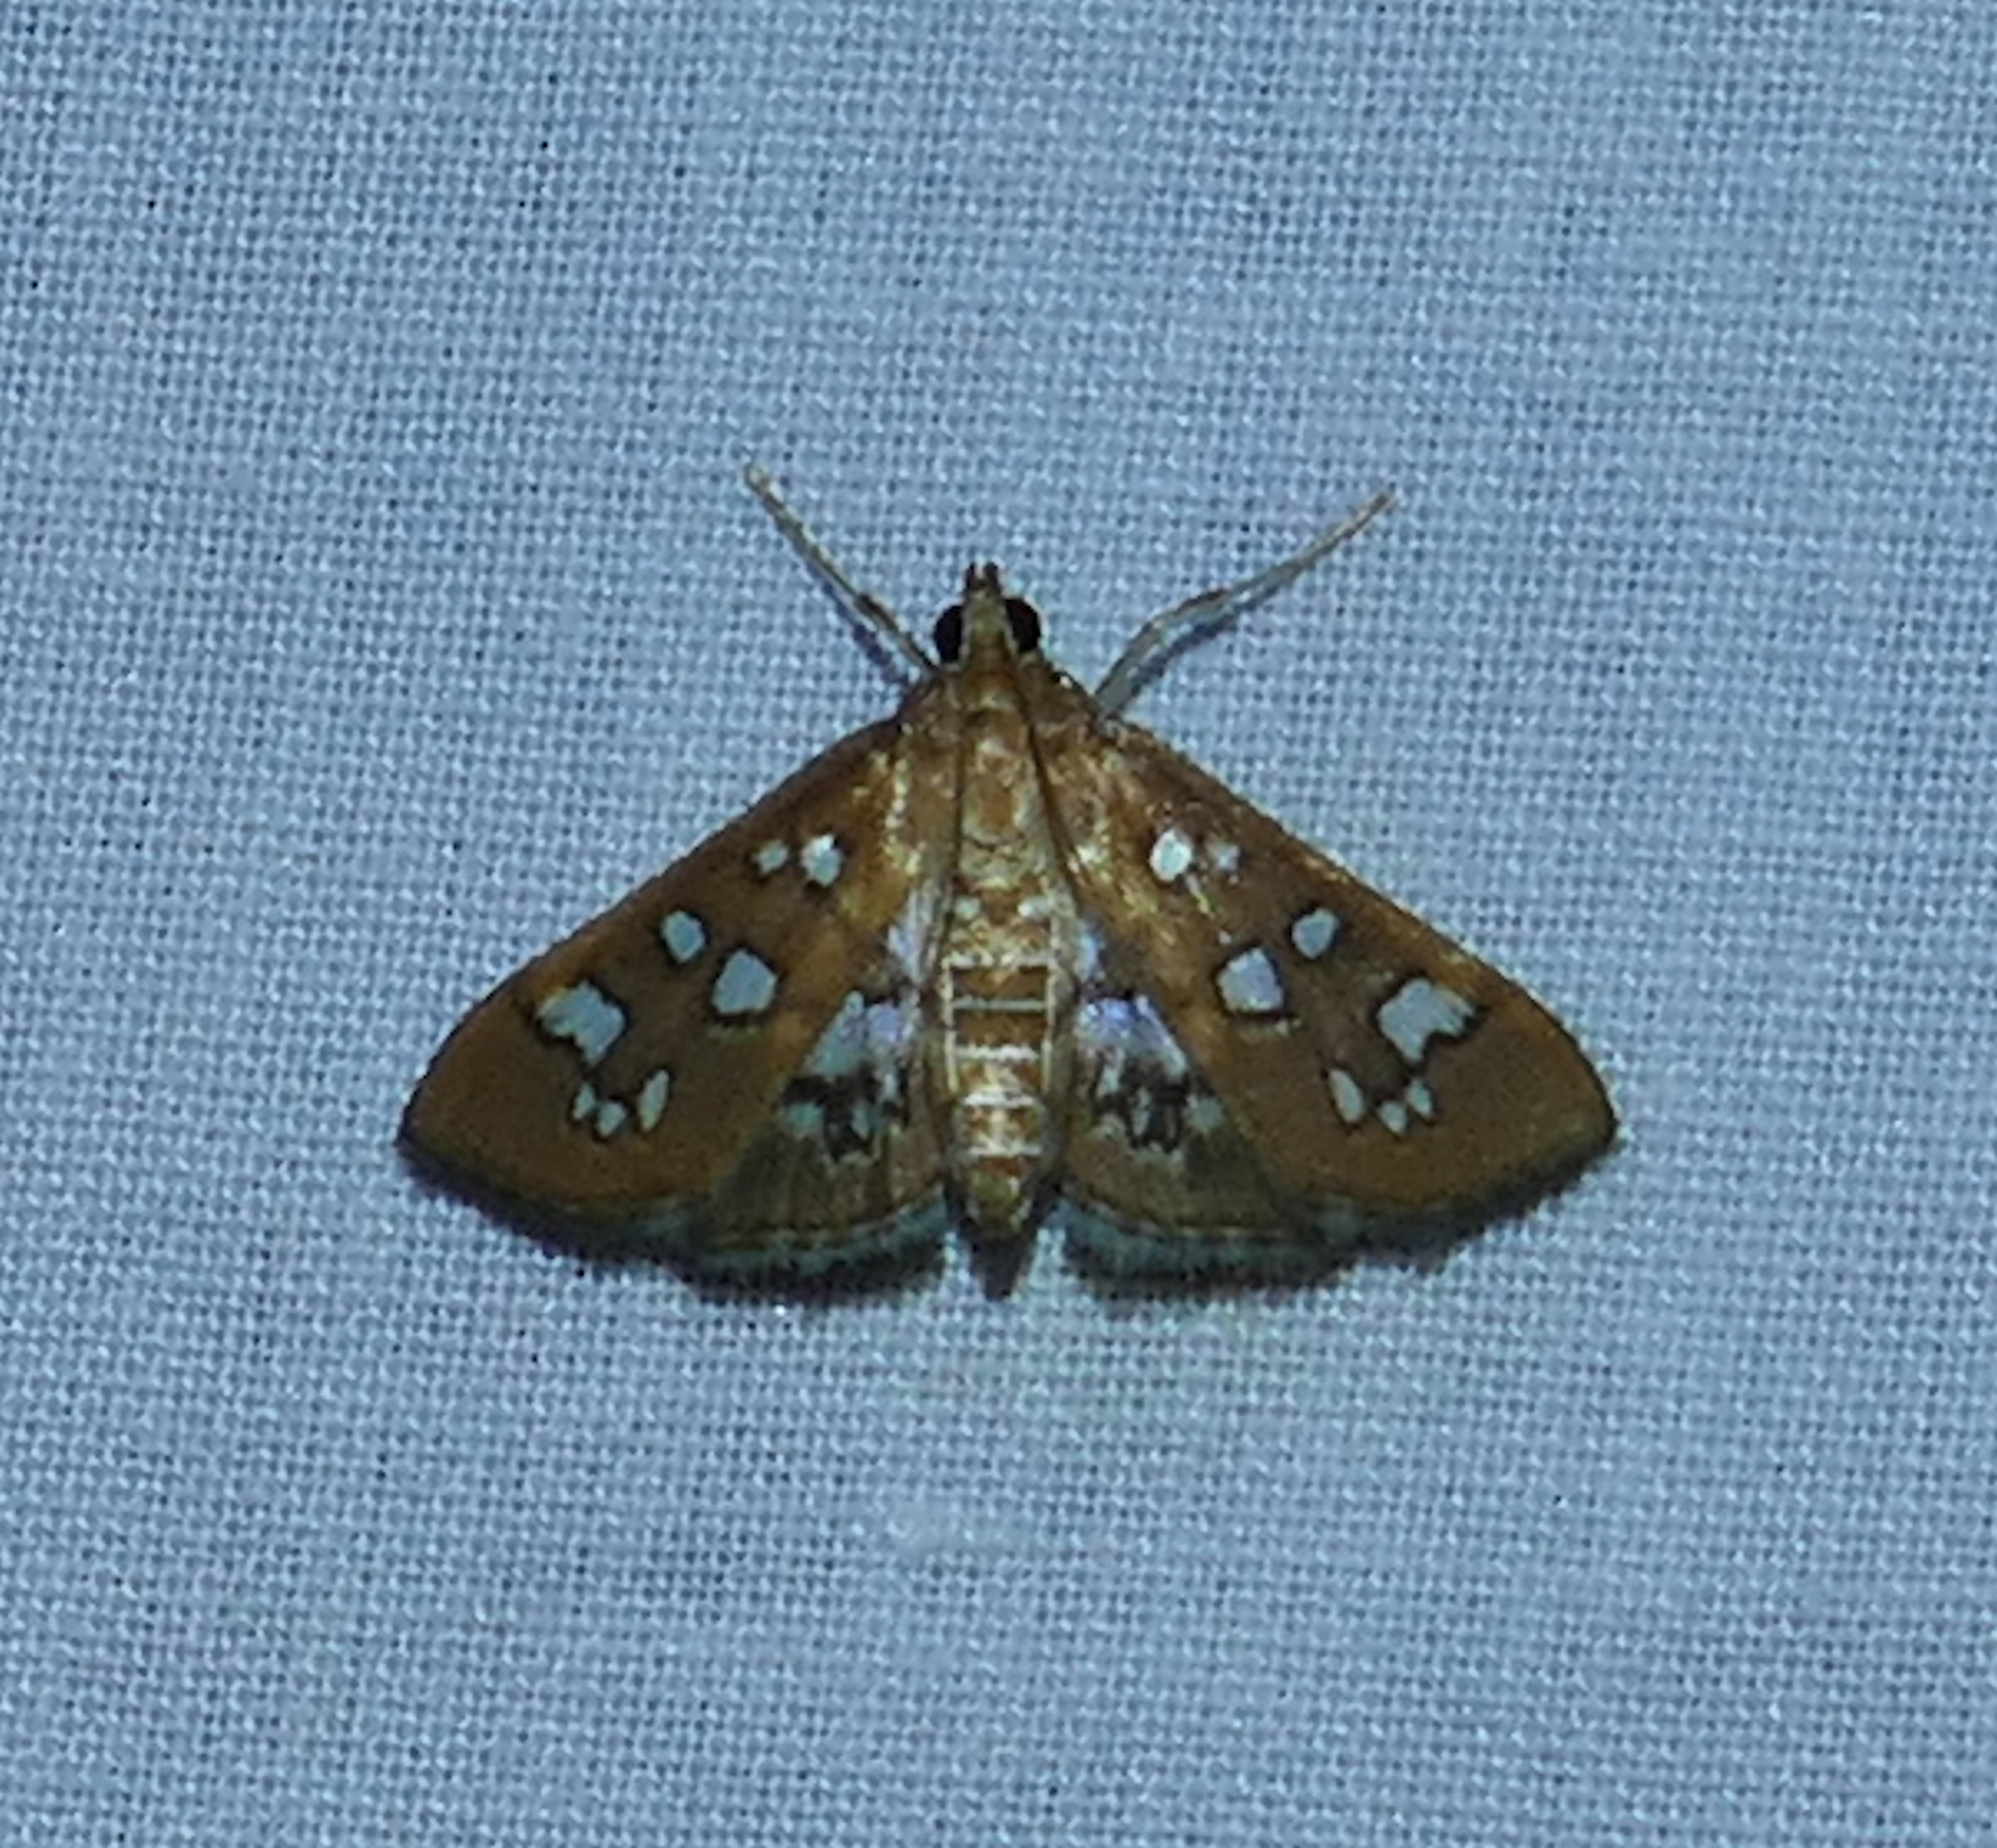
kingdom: Animalia
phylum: Arthropoda
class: Insecta
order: Lepidoptera
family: Crambidae
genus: Samea
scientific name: Samea baccatalis
